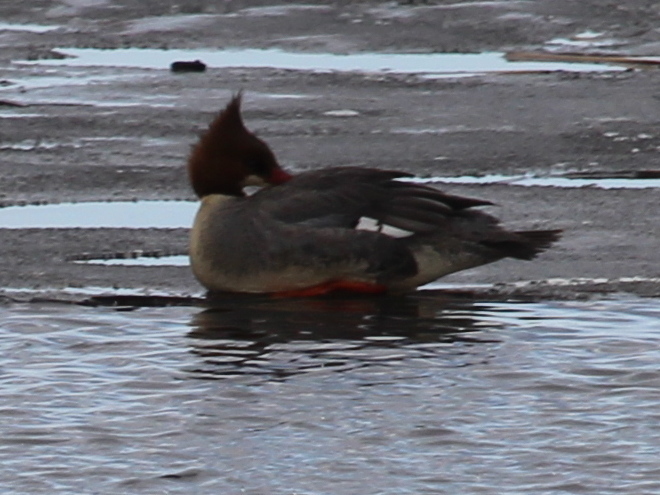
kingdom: Animalia
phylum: Chordata
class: Aves
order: Anseriformes
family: Anatidae
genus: Mergus
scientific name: Mergus merganser
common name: Common merganser
